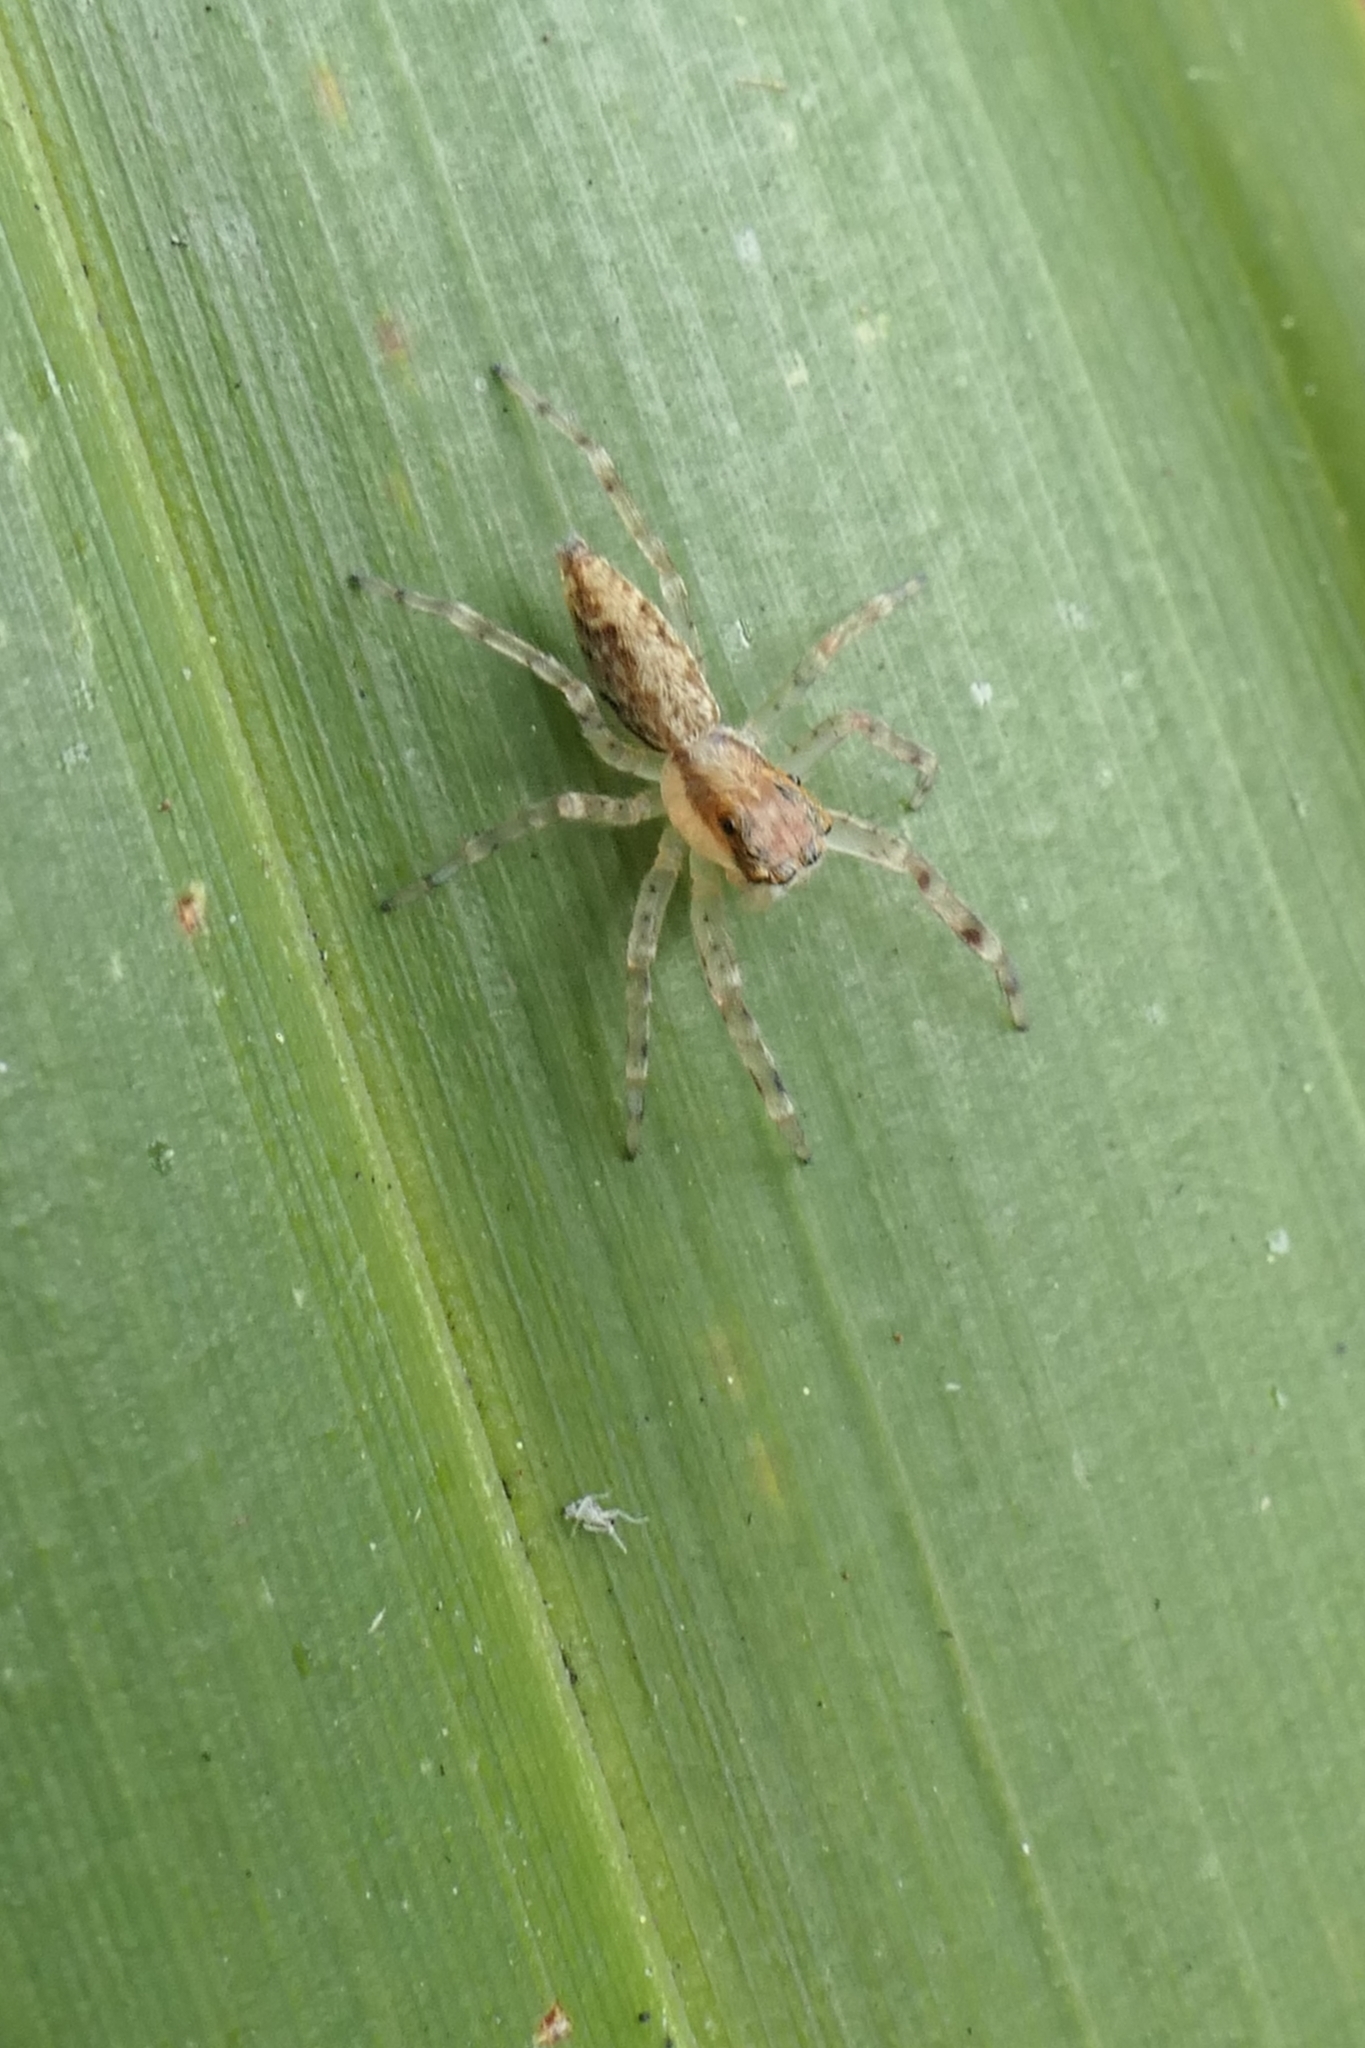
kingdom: Animalia
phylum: Arthropoda
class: Arachnida
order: Araneae
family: Salticidae
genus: Helpis
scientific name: Helpis minitabunda
